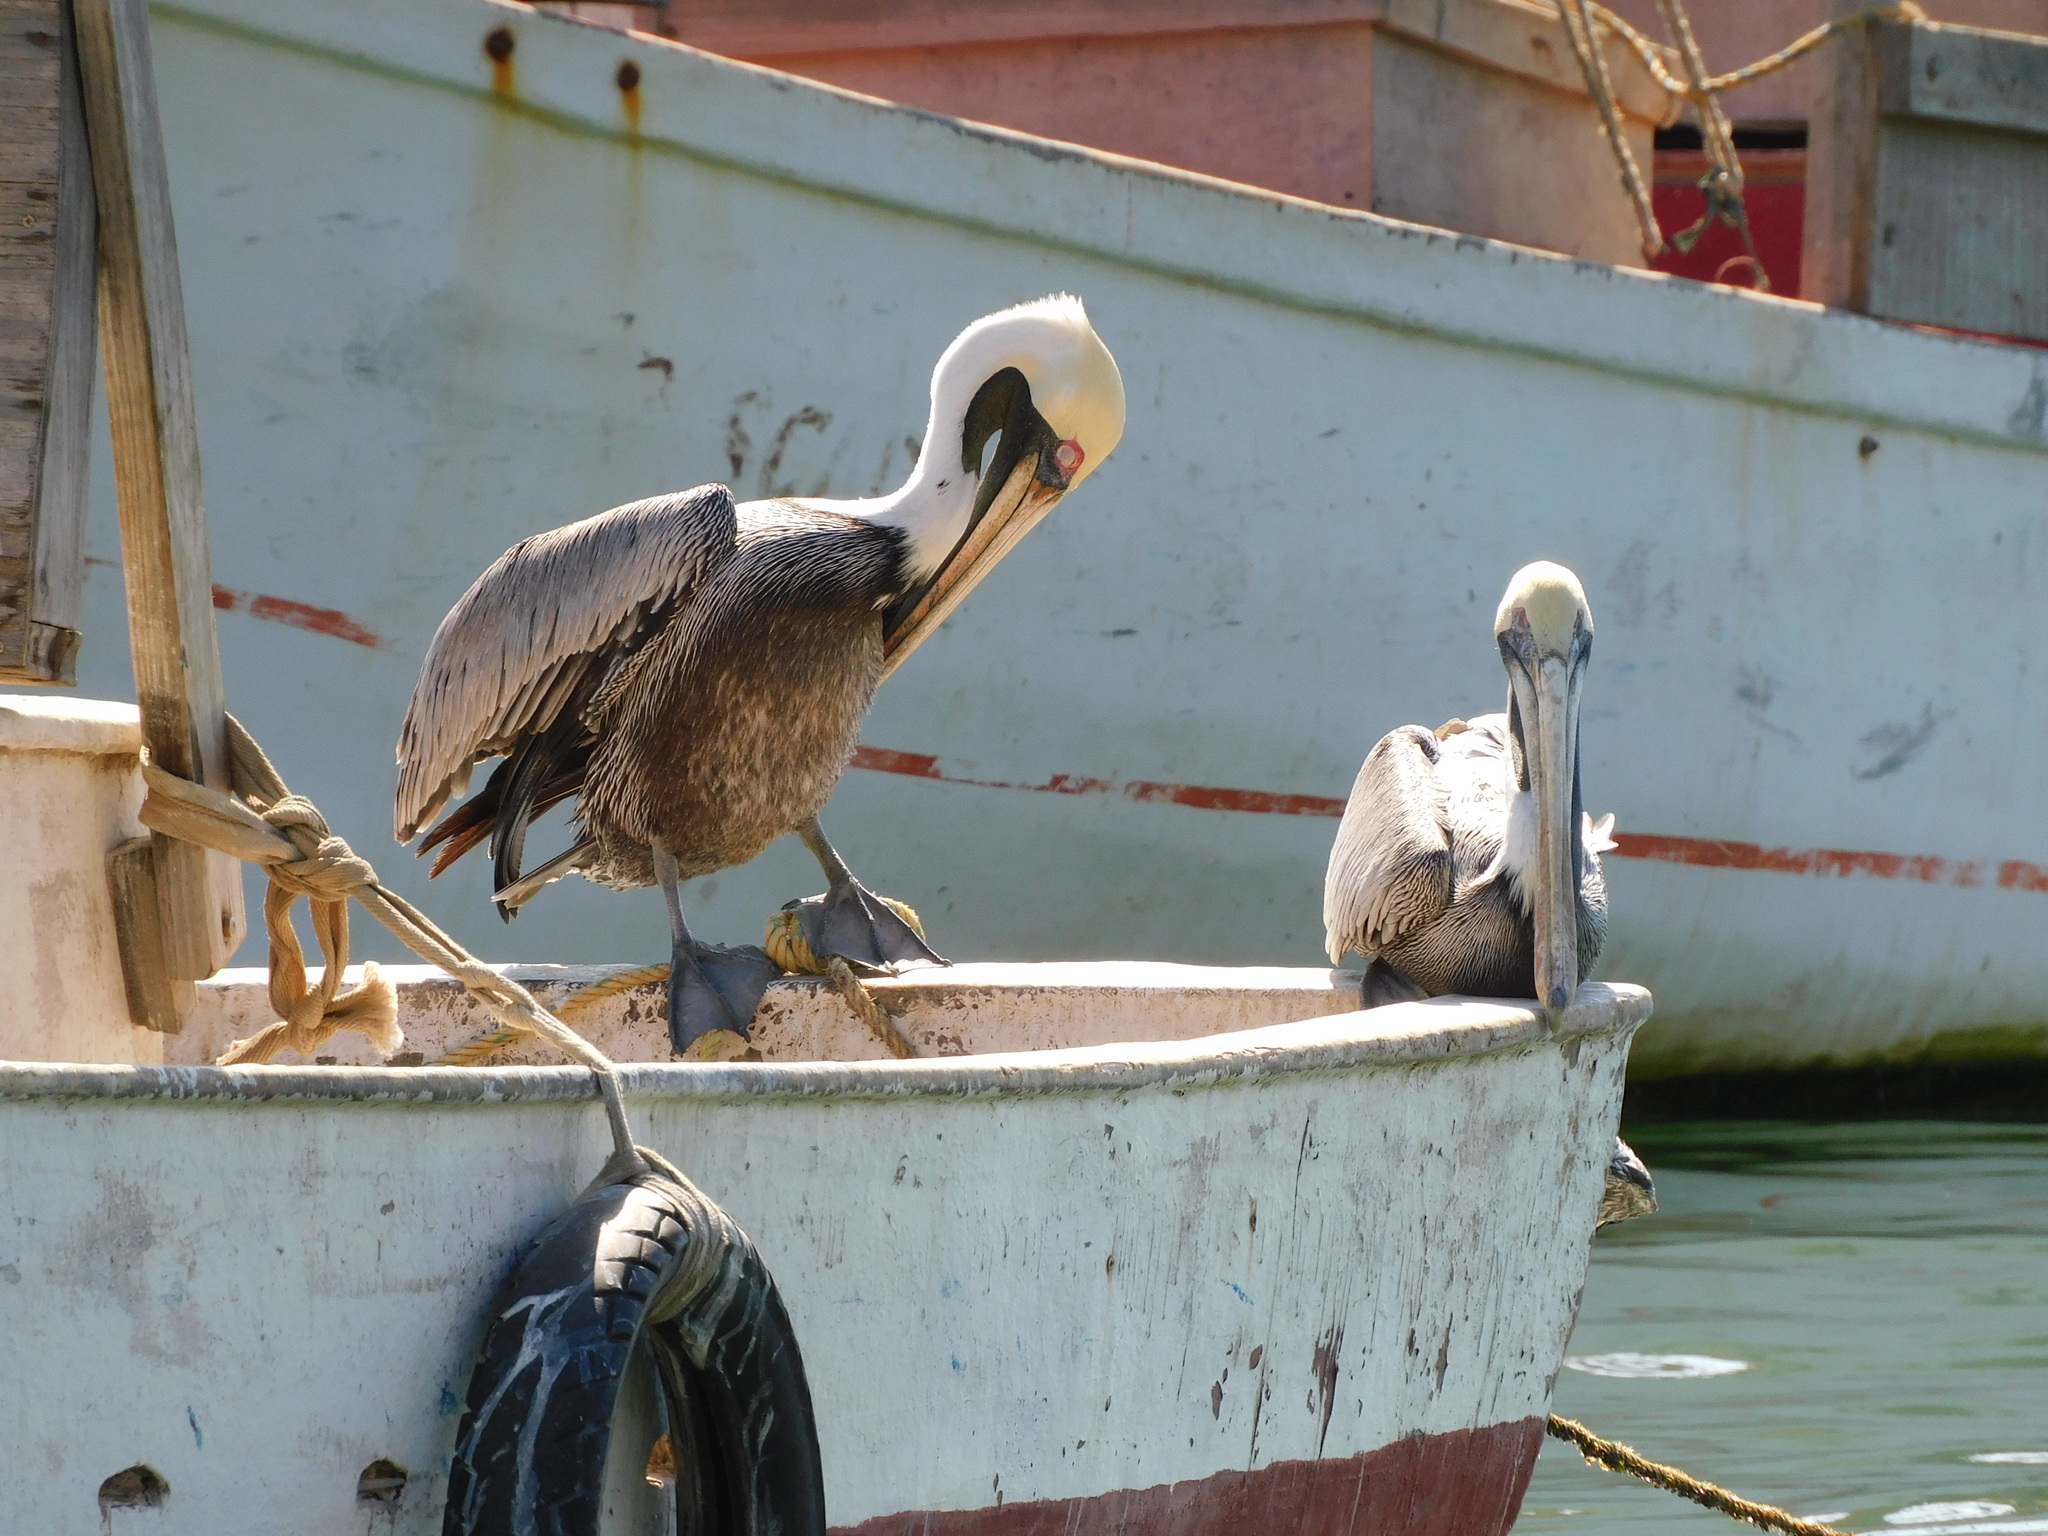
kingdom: Animalia
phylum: Chordata
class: Aves
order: Pelecaniformes
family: Pelecanidae
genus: Pelecanus
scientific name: Pelecanus occidentalis
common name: Brown pelican
